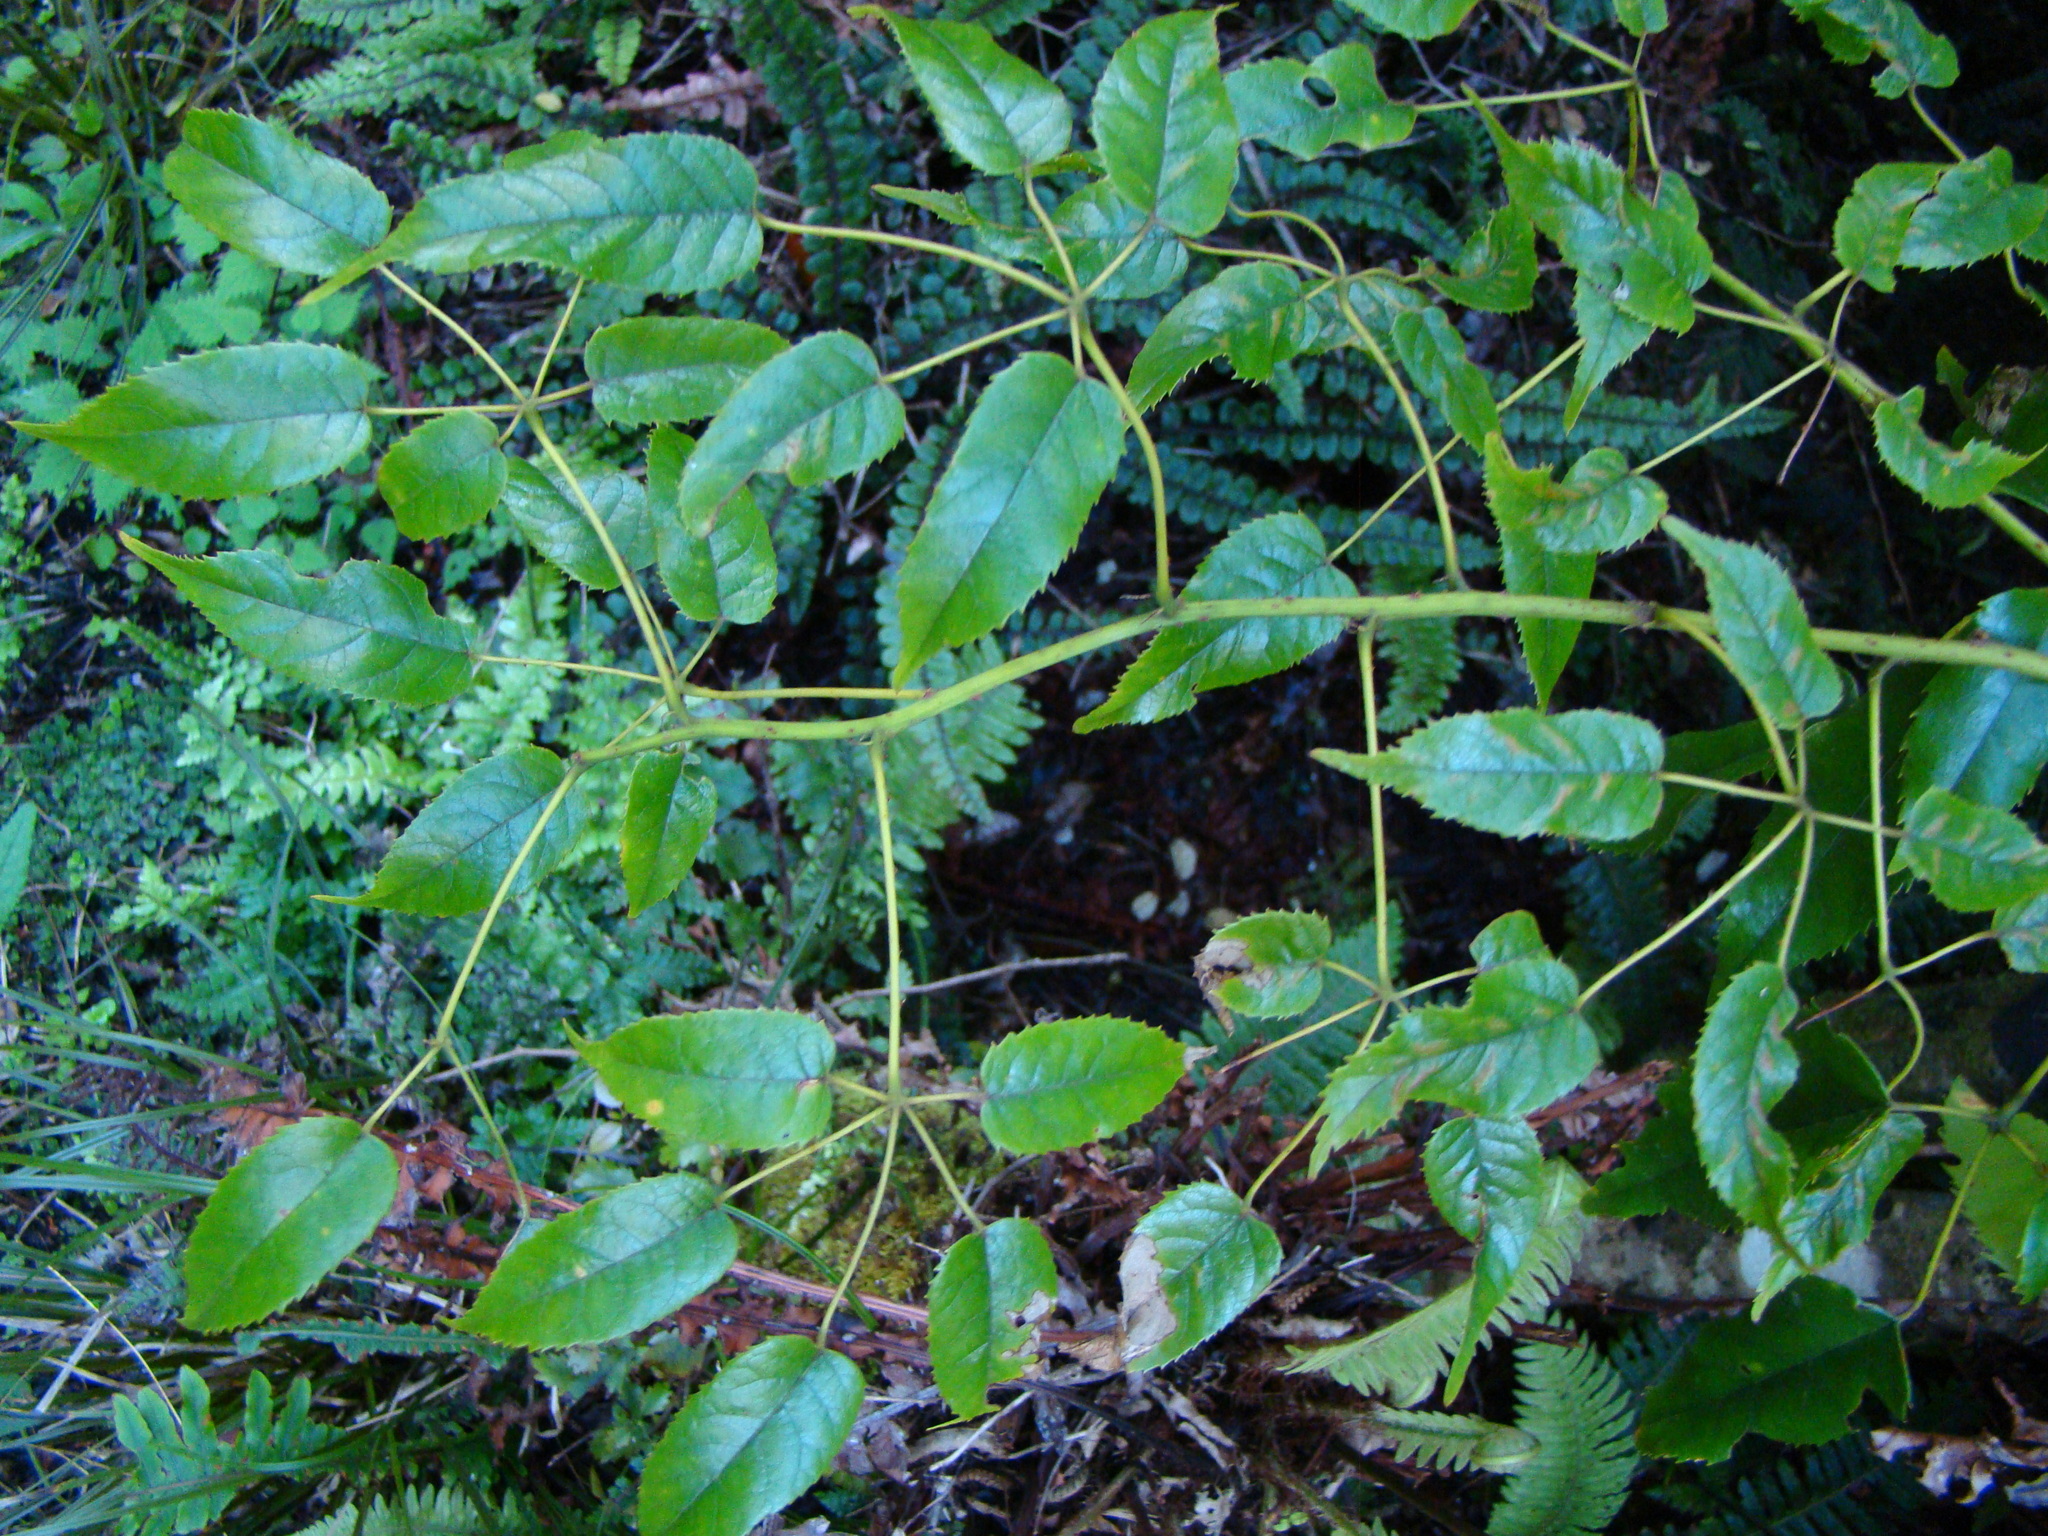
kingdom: Plantae
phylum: Tracheophyta
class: Magnoliopsida
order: Rosales
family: Rosaceae
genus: Rubus
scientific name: Rubus cissoides
